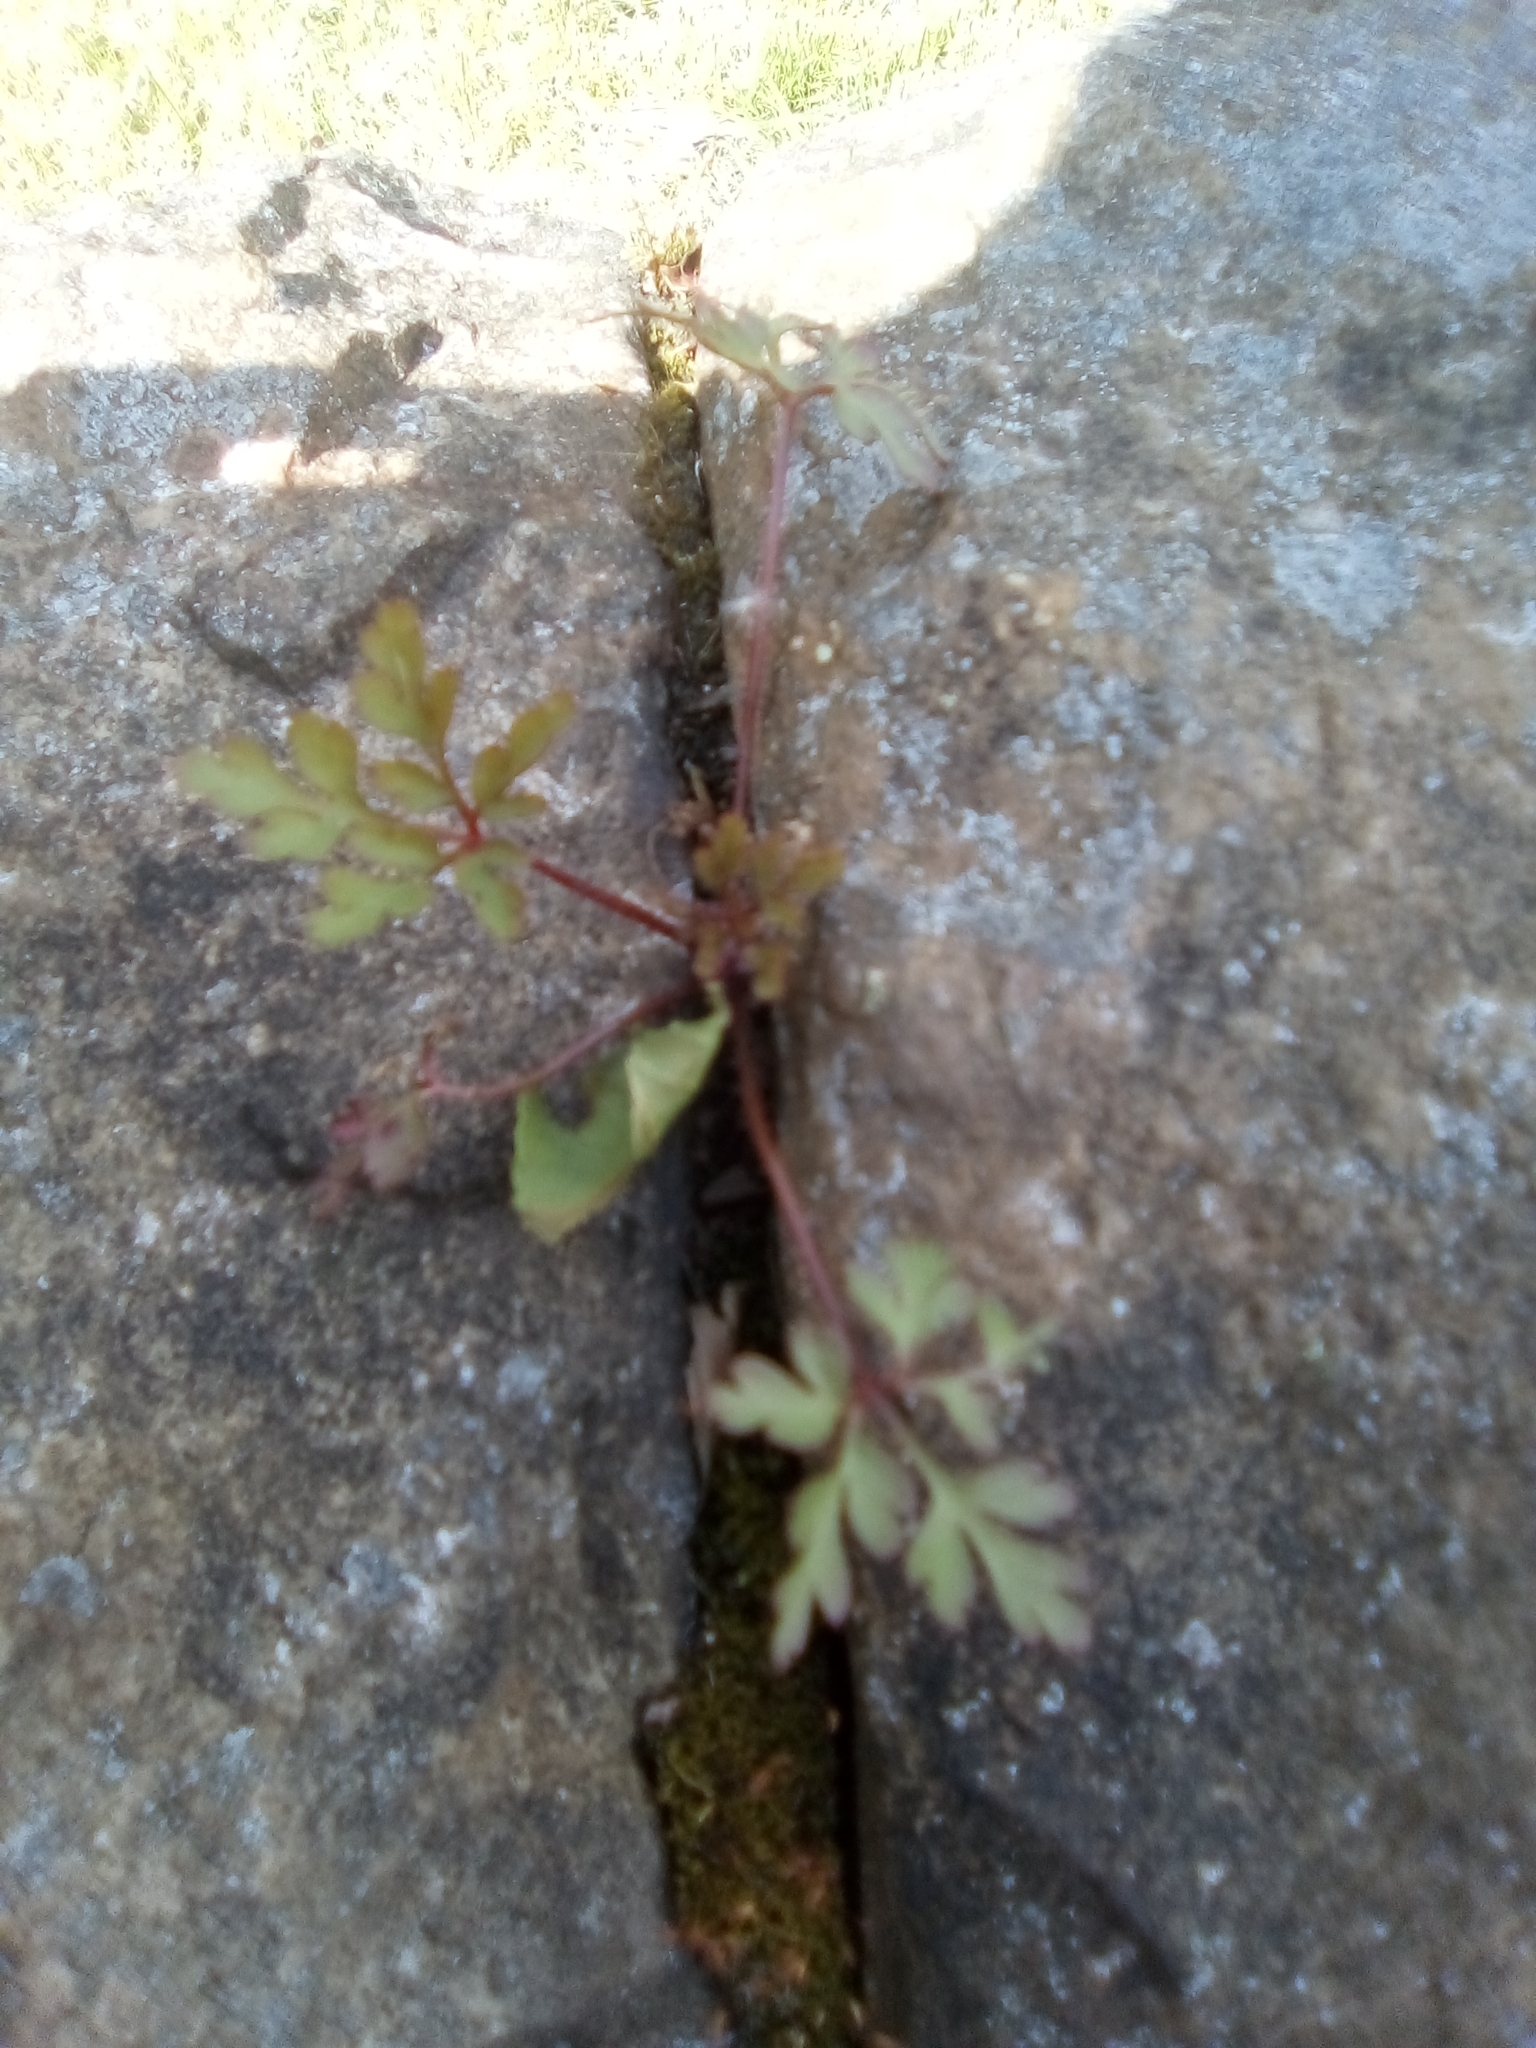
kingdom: Plantae
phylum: Tracheophyta
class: Magnoliopsida
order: Geraniales
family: Geraniaceae
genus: Geranium
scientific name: Geranium robertianum
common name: Herb-robert
